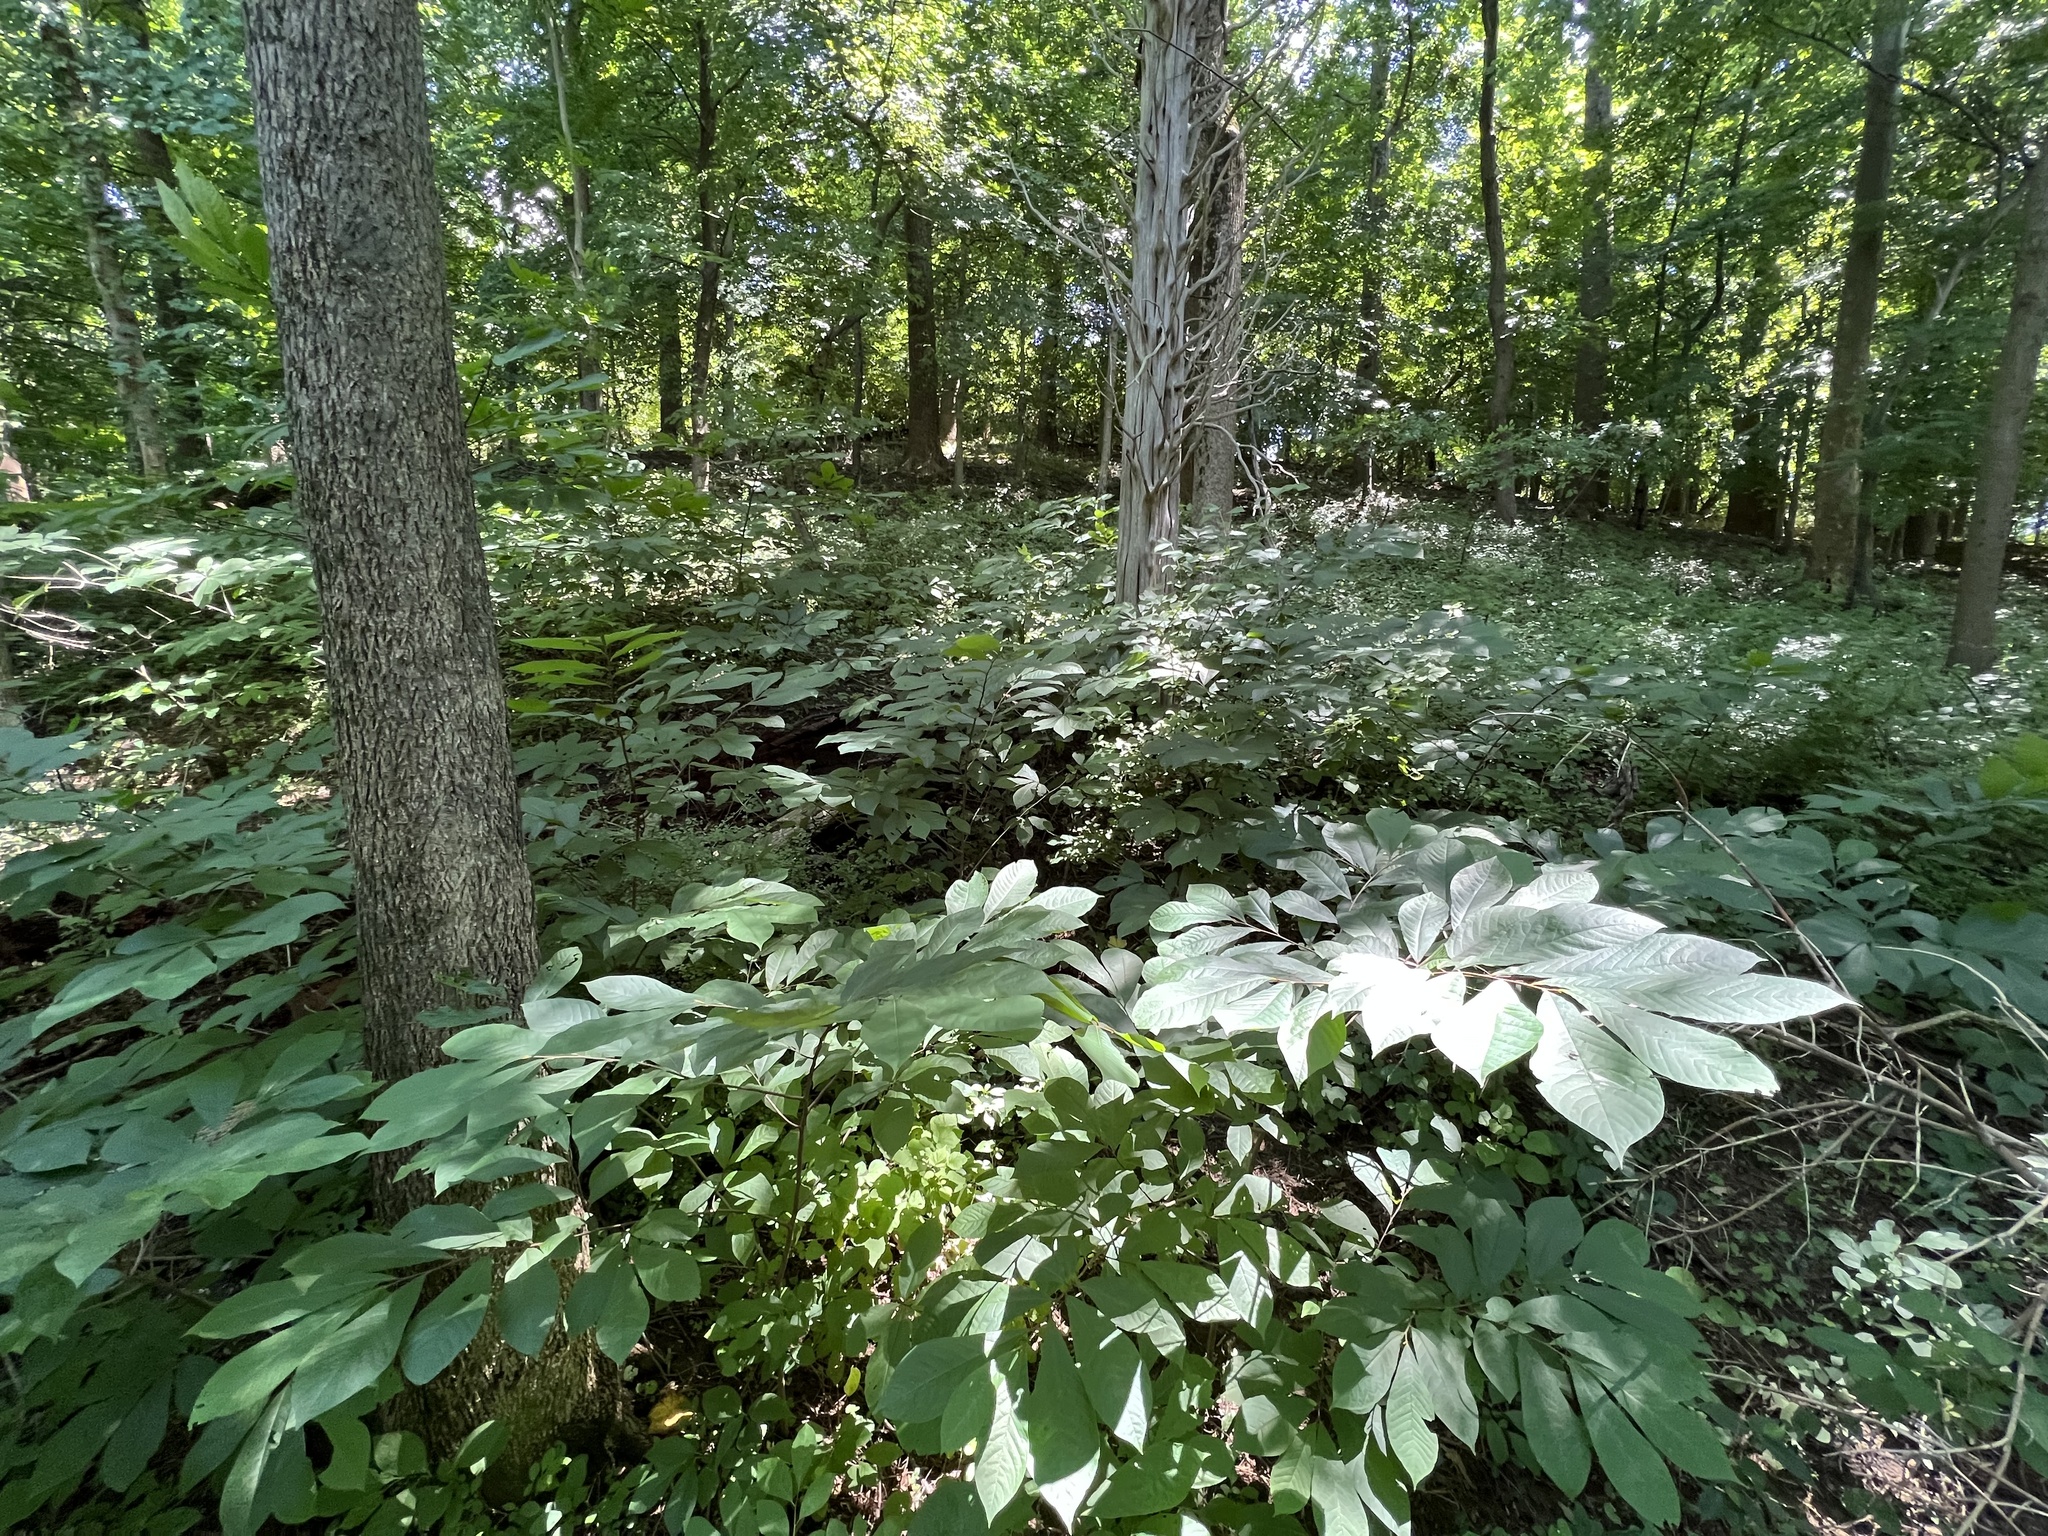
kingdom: Plantae
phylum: Tracheophyta
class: Magnoliopsida
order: Magnoliales
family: Annonaceae
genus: Asimina
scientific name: Asimina triloba
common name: Dog-banana
